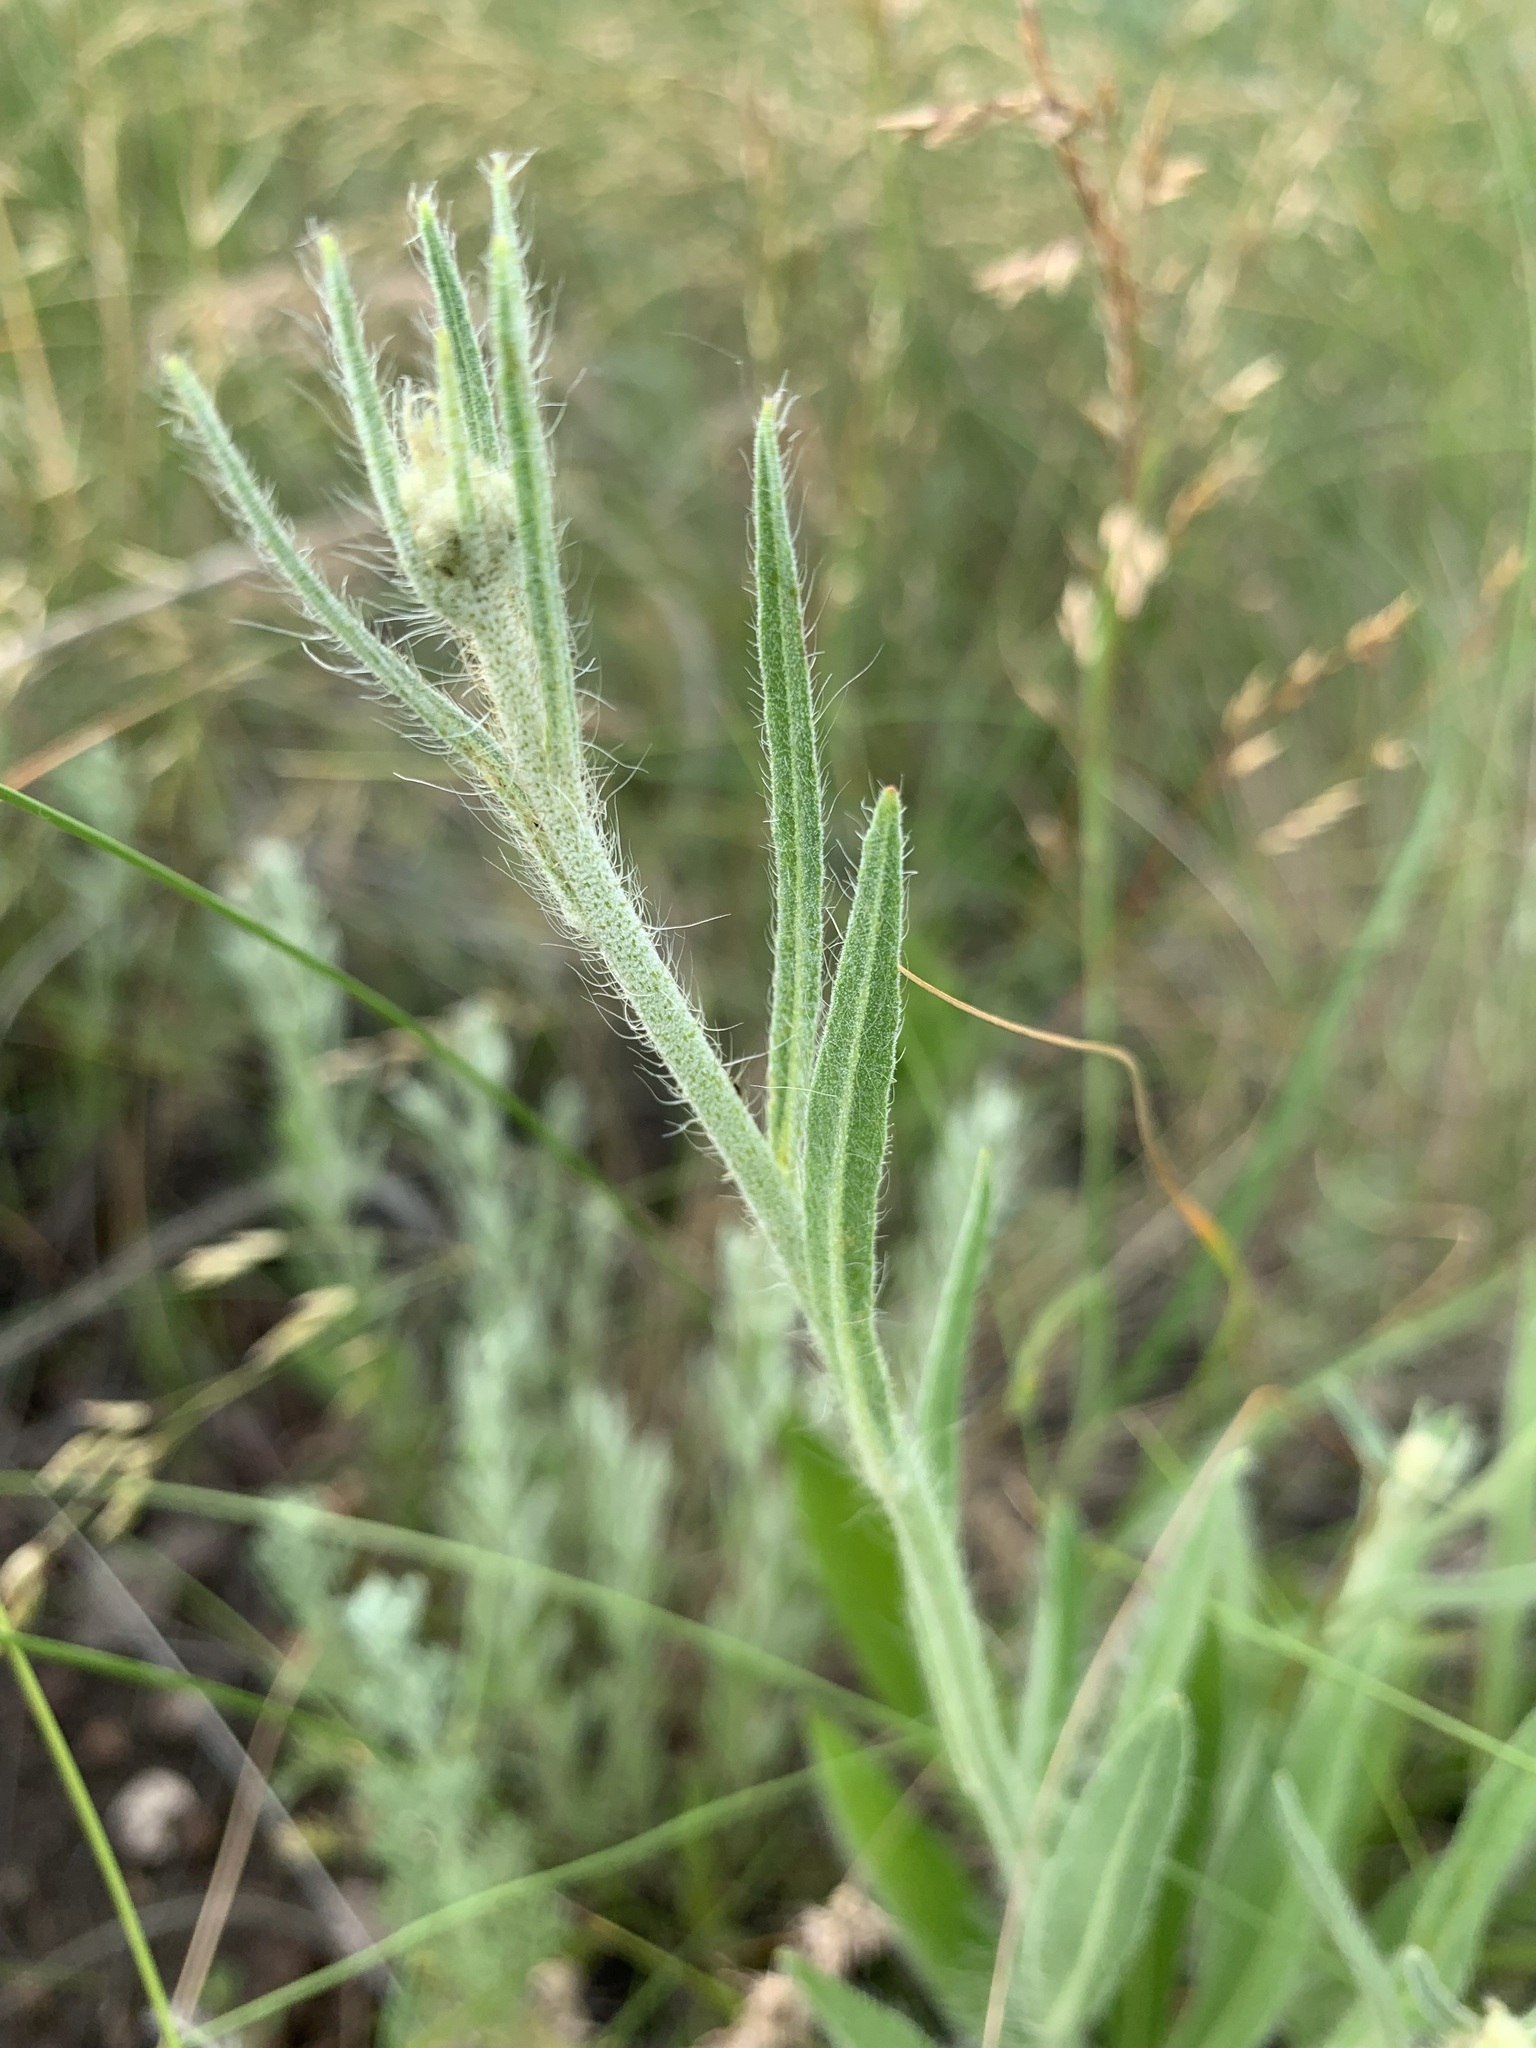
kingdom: Plantae
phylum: Tracheophyta
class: Magnoliopsida
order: Asterales
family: Asteraceae
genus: Pilosella
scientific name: Pilosella echioides
